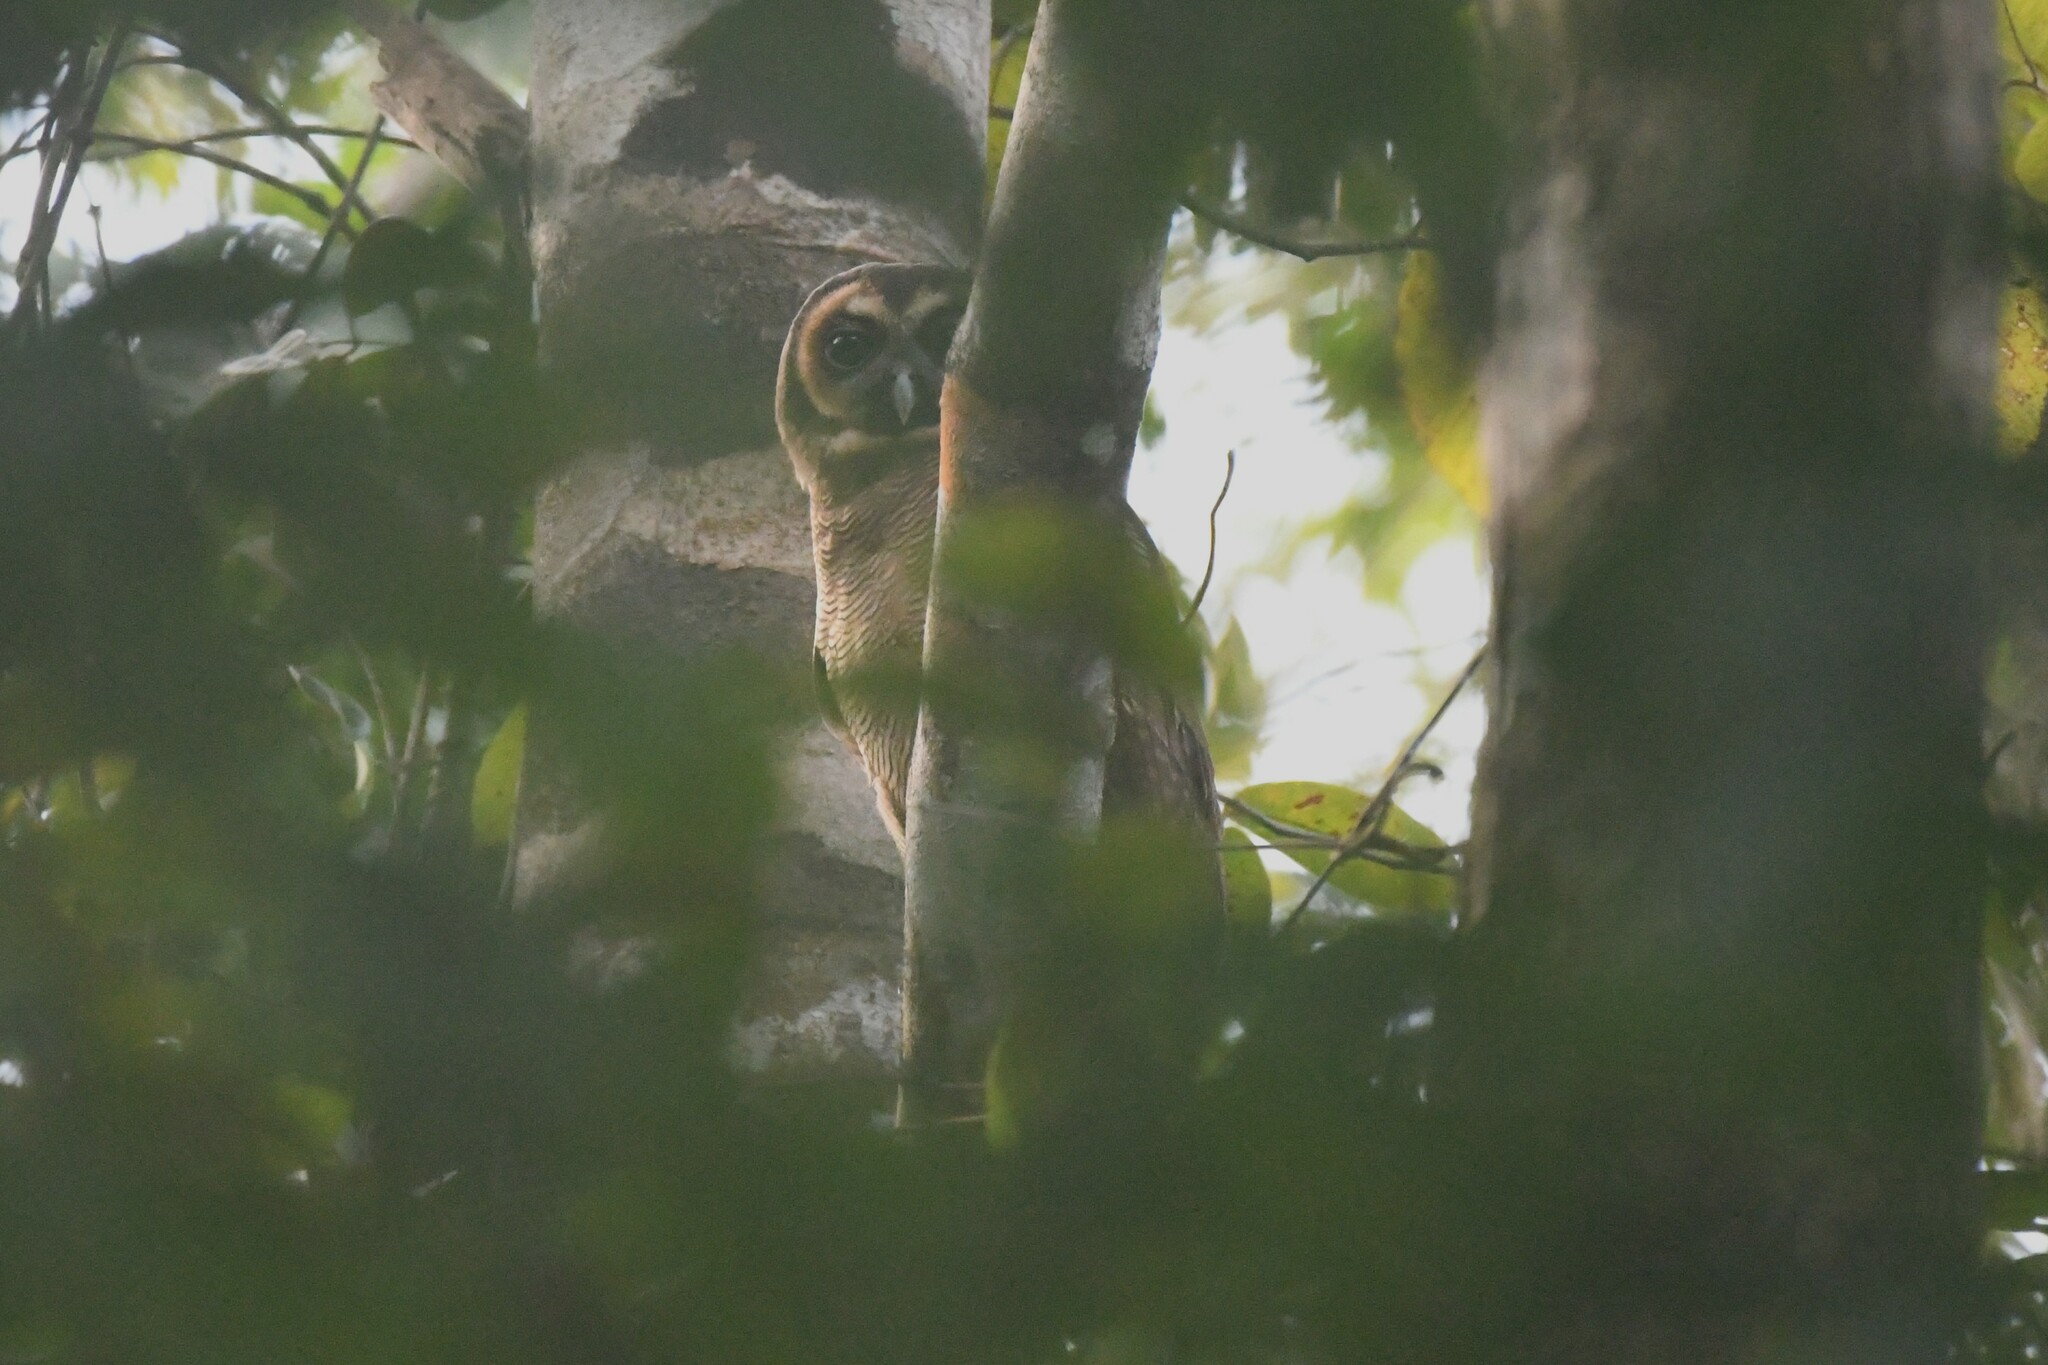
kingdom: Animalia
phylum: Chordata
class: Aves
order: Strigiformes
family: Strigidae
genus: Strix
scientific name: Strix leptogrammica
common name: Brown wood owl
